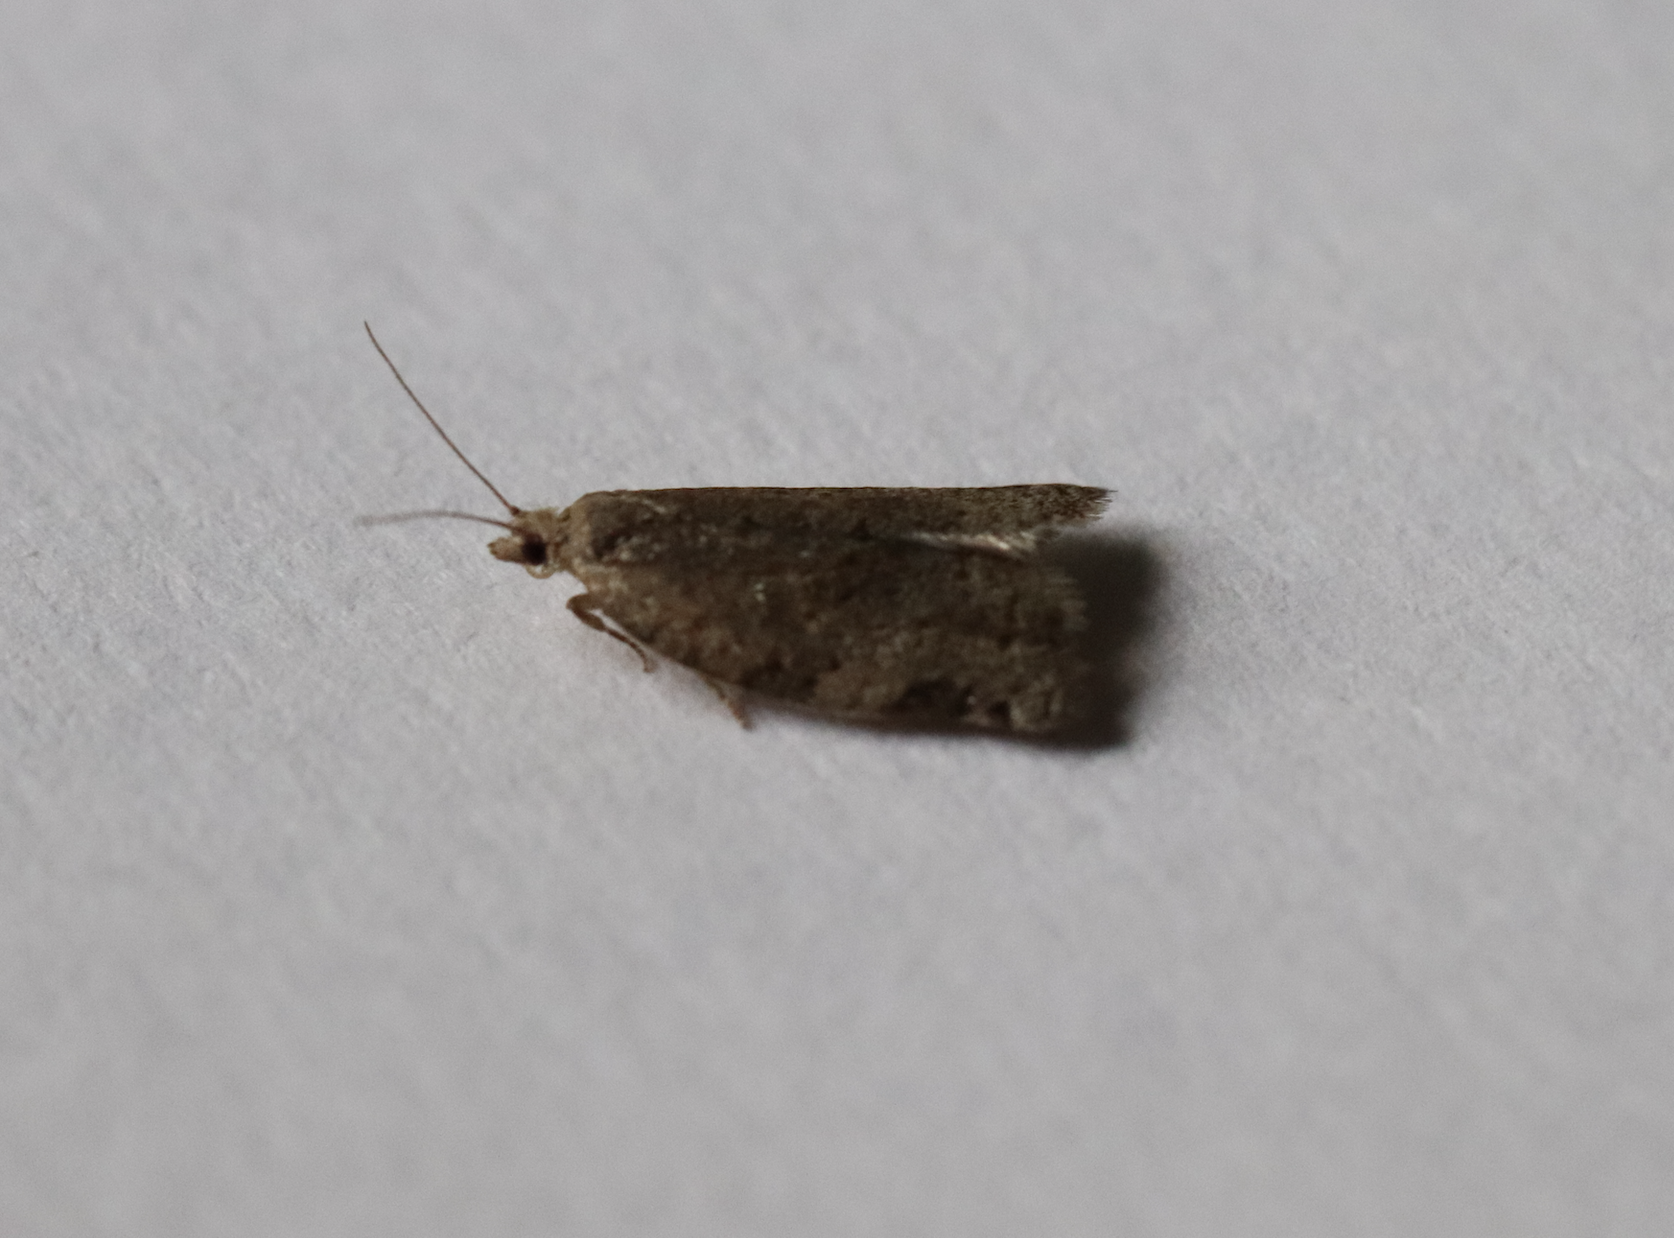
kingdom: Animalia
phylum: Arthropoda
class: Insecta
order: Lepidoptera
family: Tortricidae
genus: Clepsis
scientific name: Clepsis virescana
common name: Greenish apple moth
